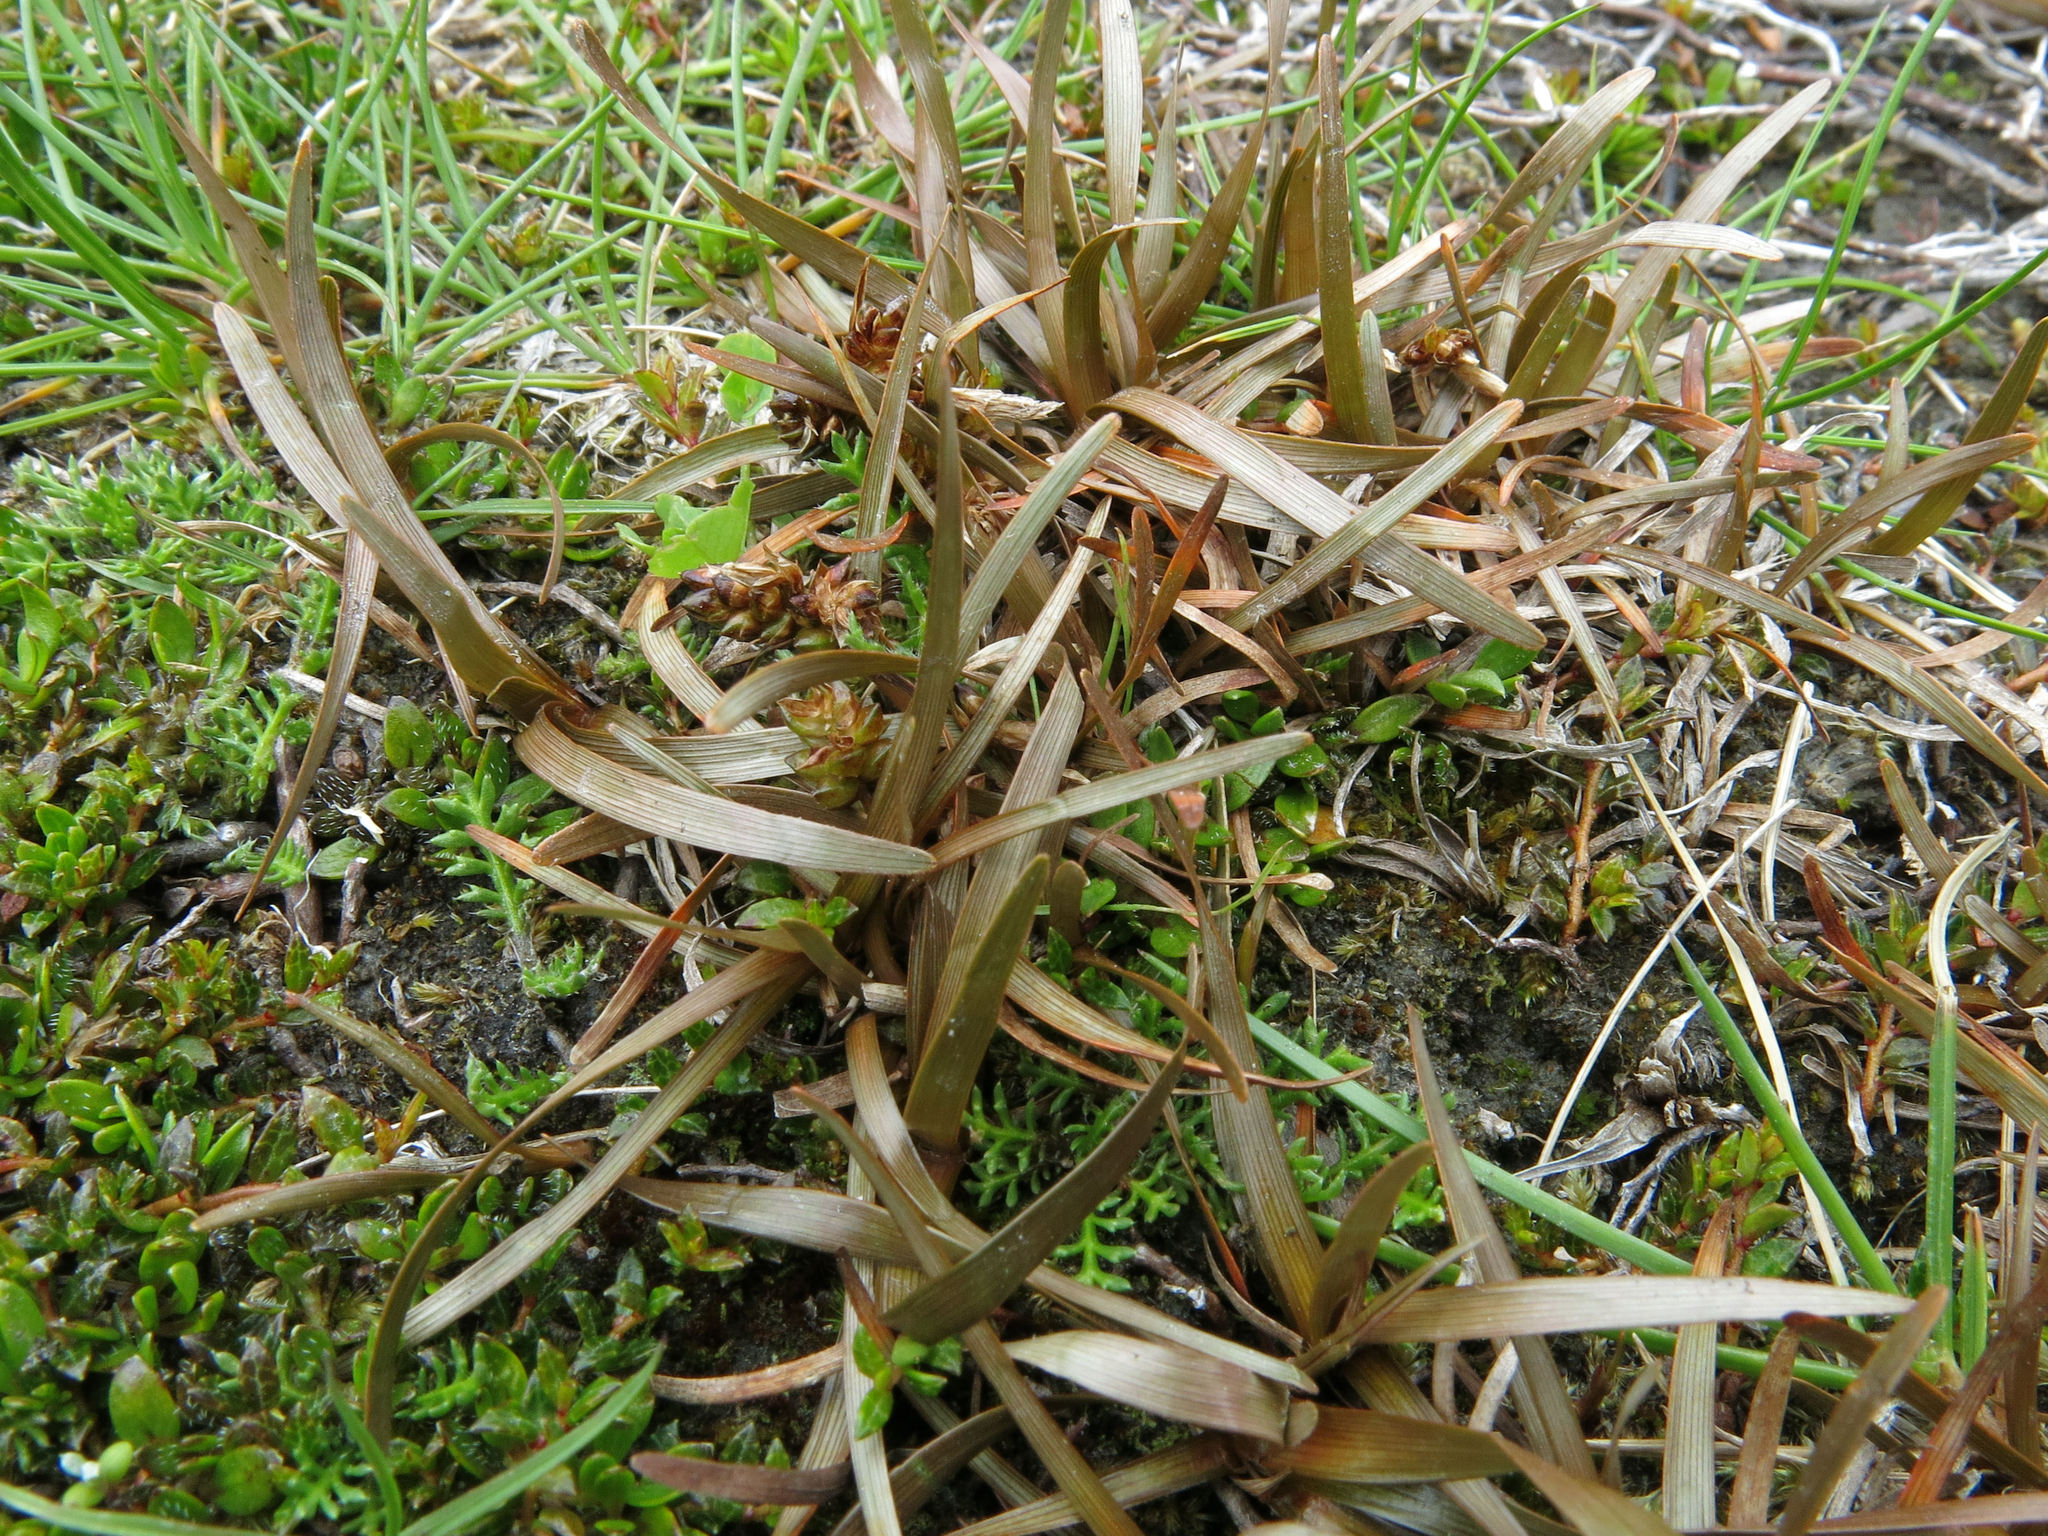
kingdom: Plantae
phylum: Tracheophyta
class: Liliopsida
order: Poales
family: Cyperaceae
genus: Carex
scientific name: Carex talbotii
